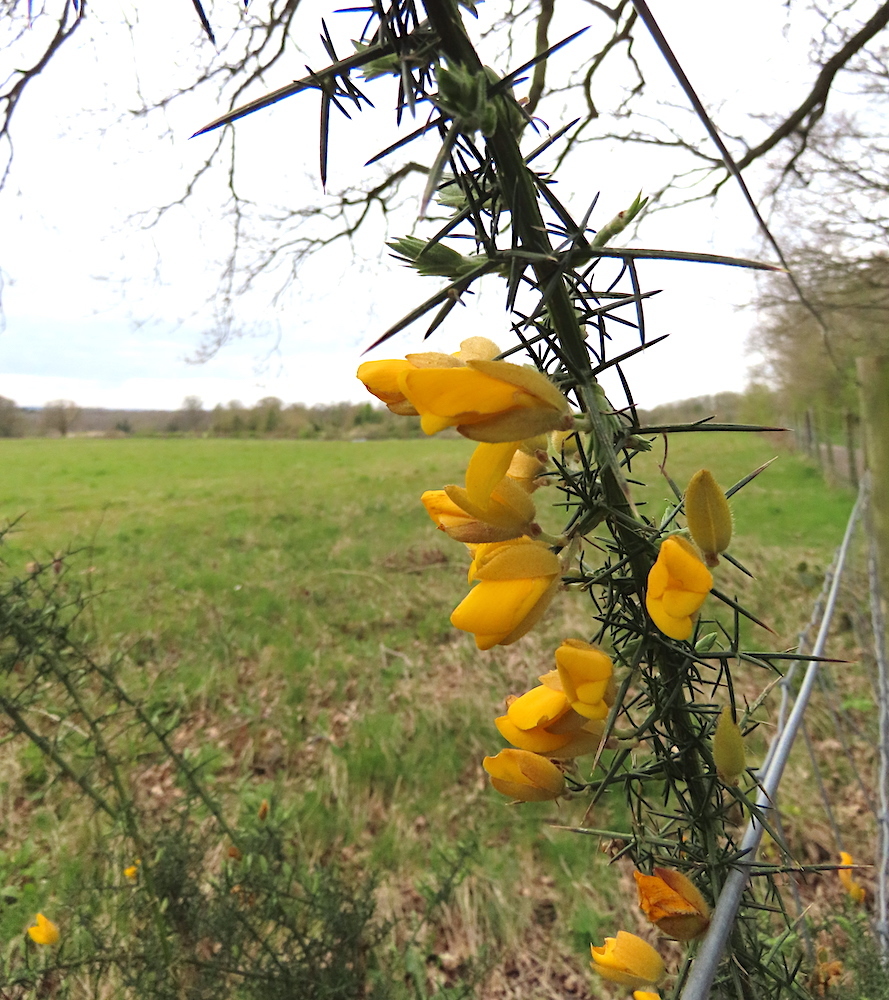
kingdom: Plantae
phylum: Tracheophyta
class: Magnoliopsida
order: Fabales
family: Fabaceae
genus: Ulex
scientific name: Ulex europaeus
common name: Common gorse
